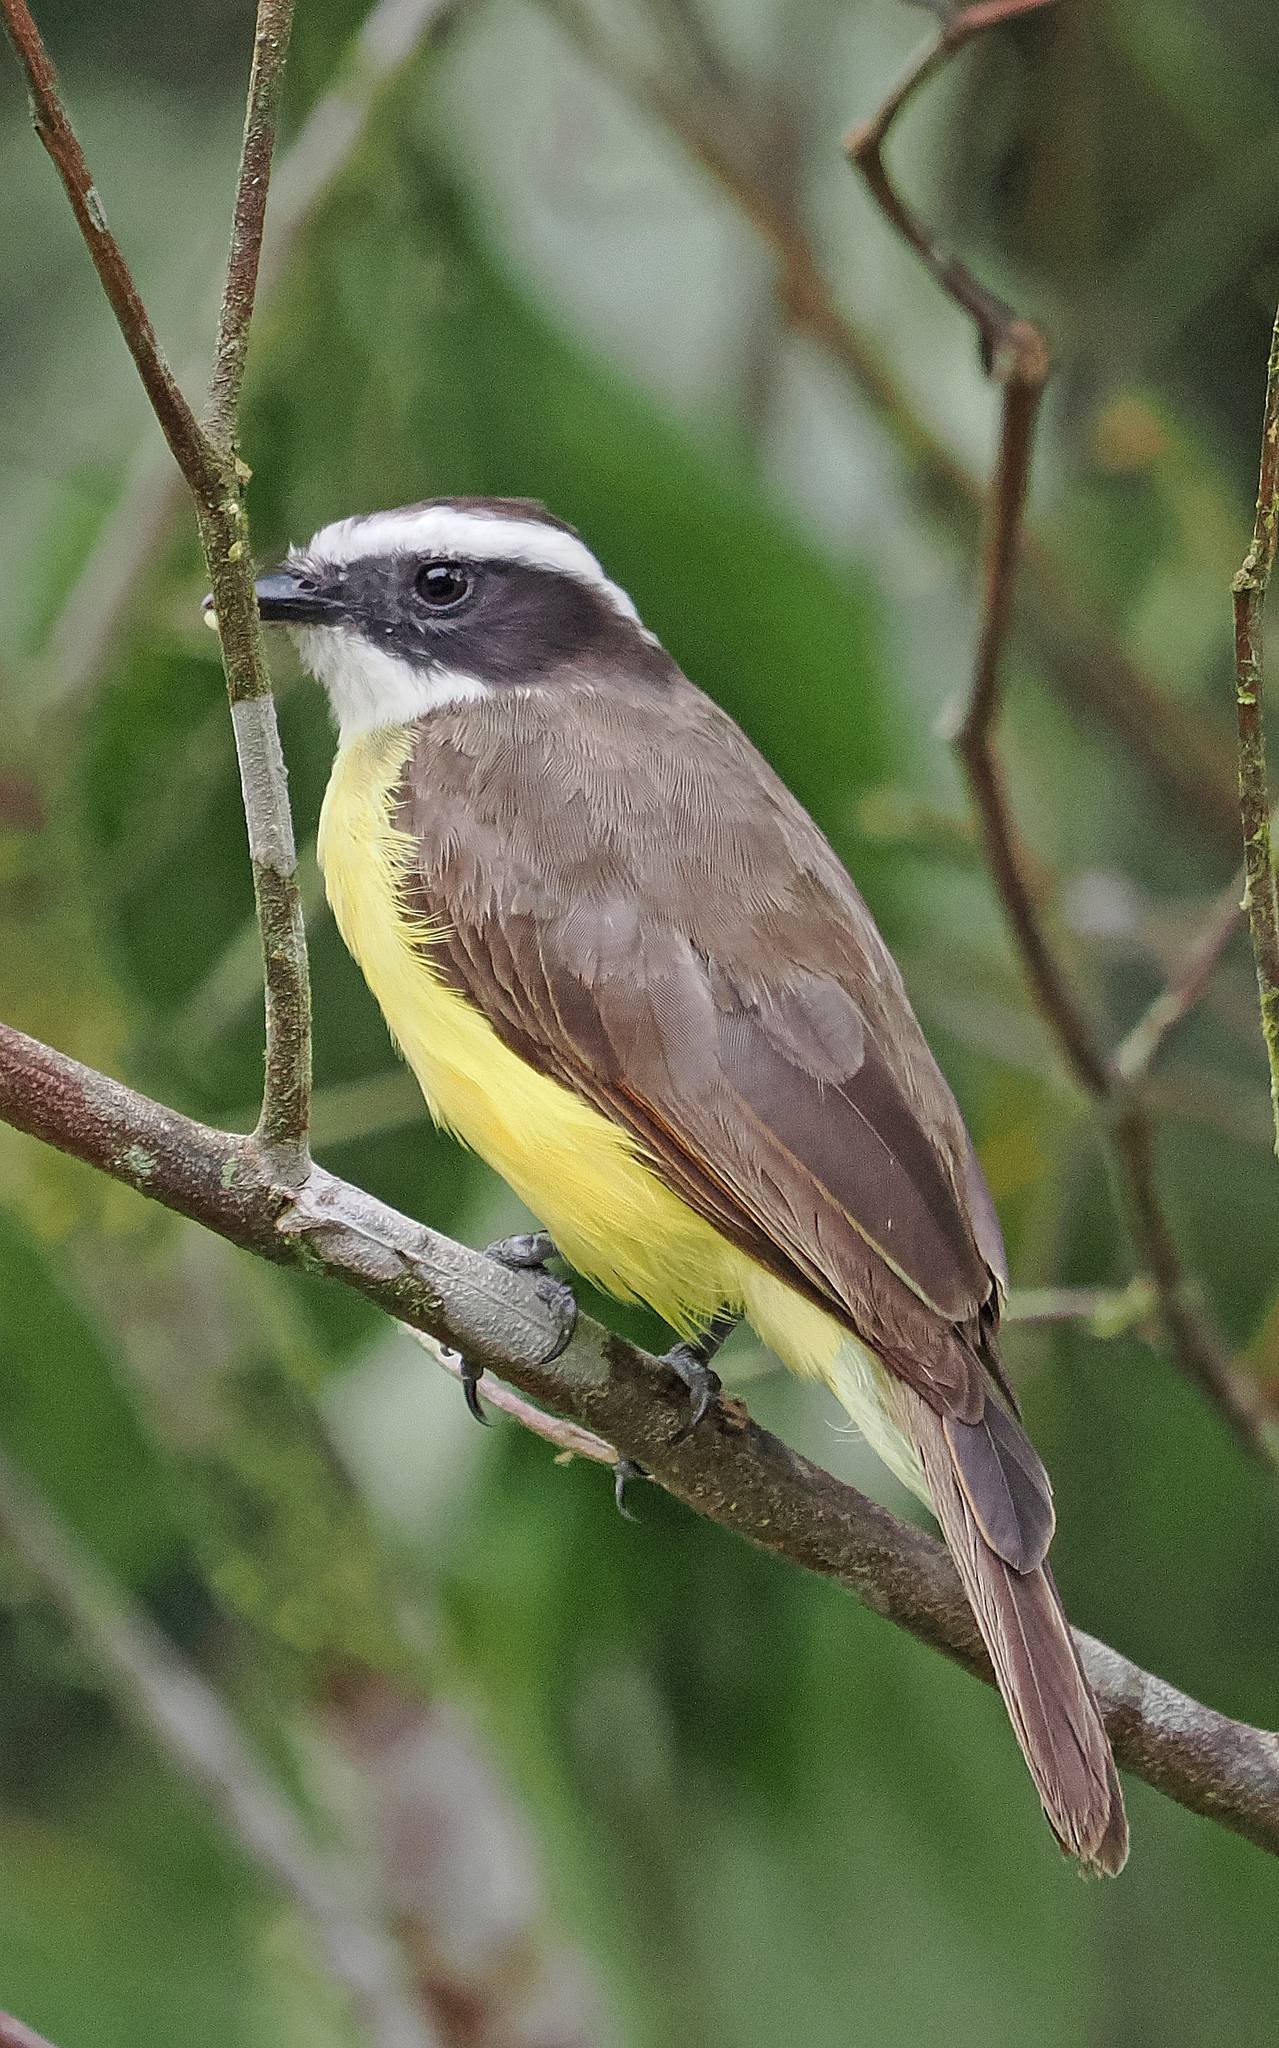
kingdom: Animalia
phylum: Chordata
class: Aves
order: Passeriformes
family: Tyrannidae
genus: Myiozetetes
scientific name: Myiozetetes cayanensis
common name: Rusty-margined flycatcher
